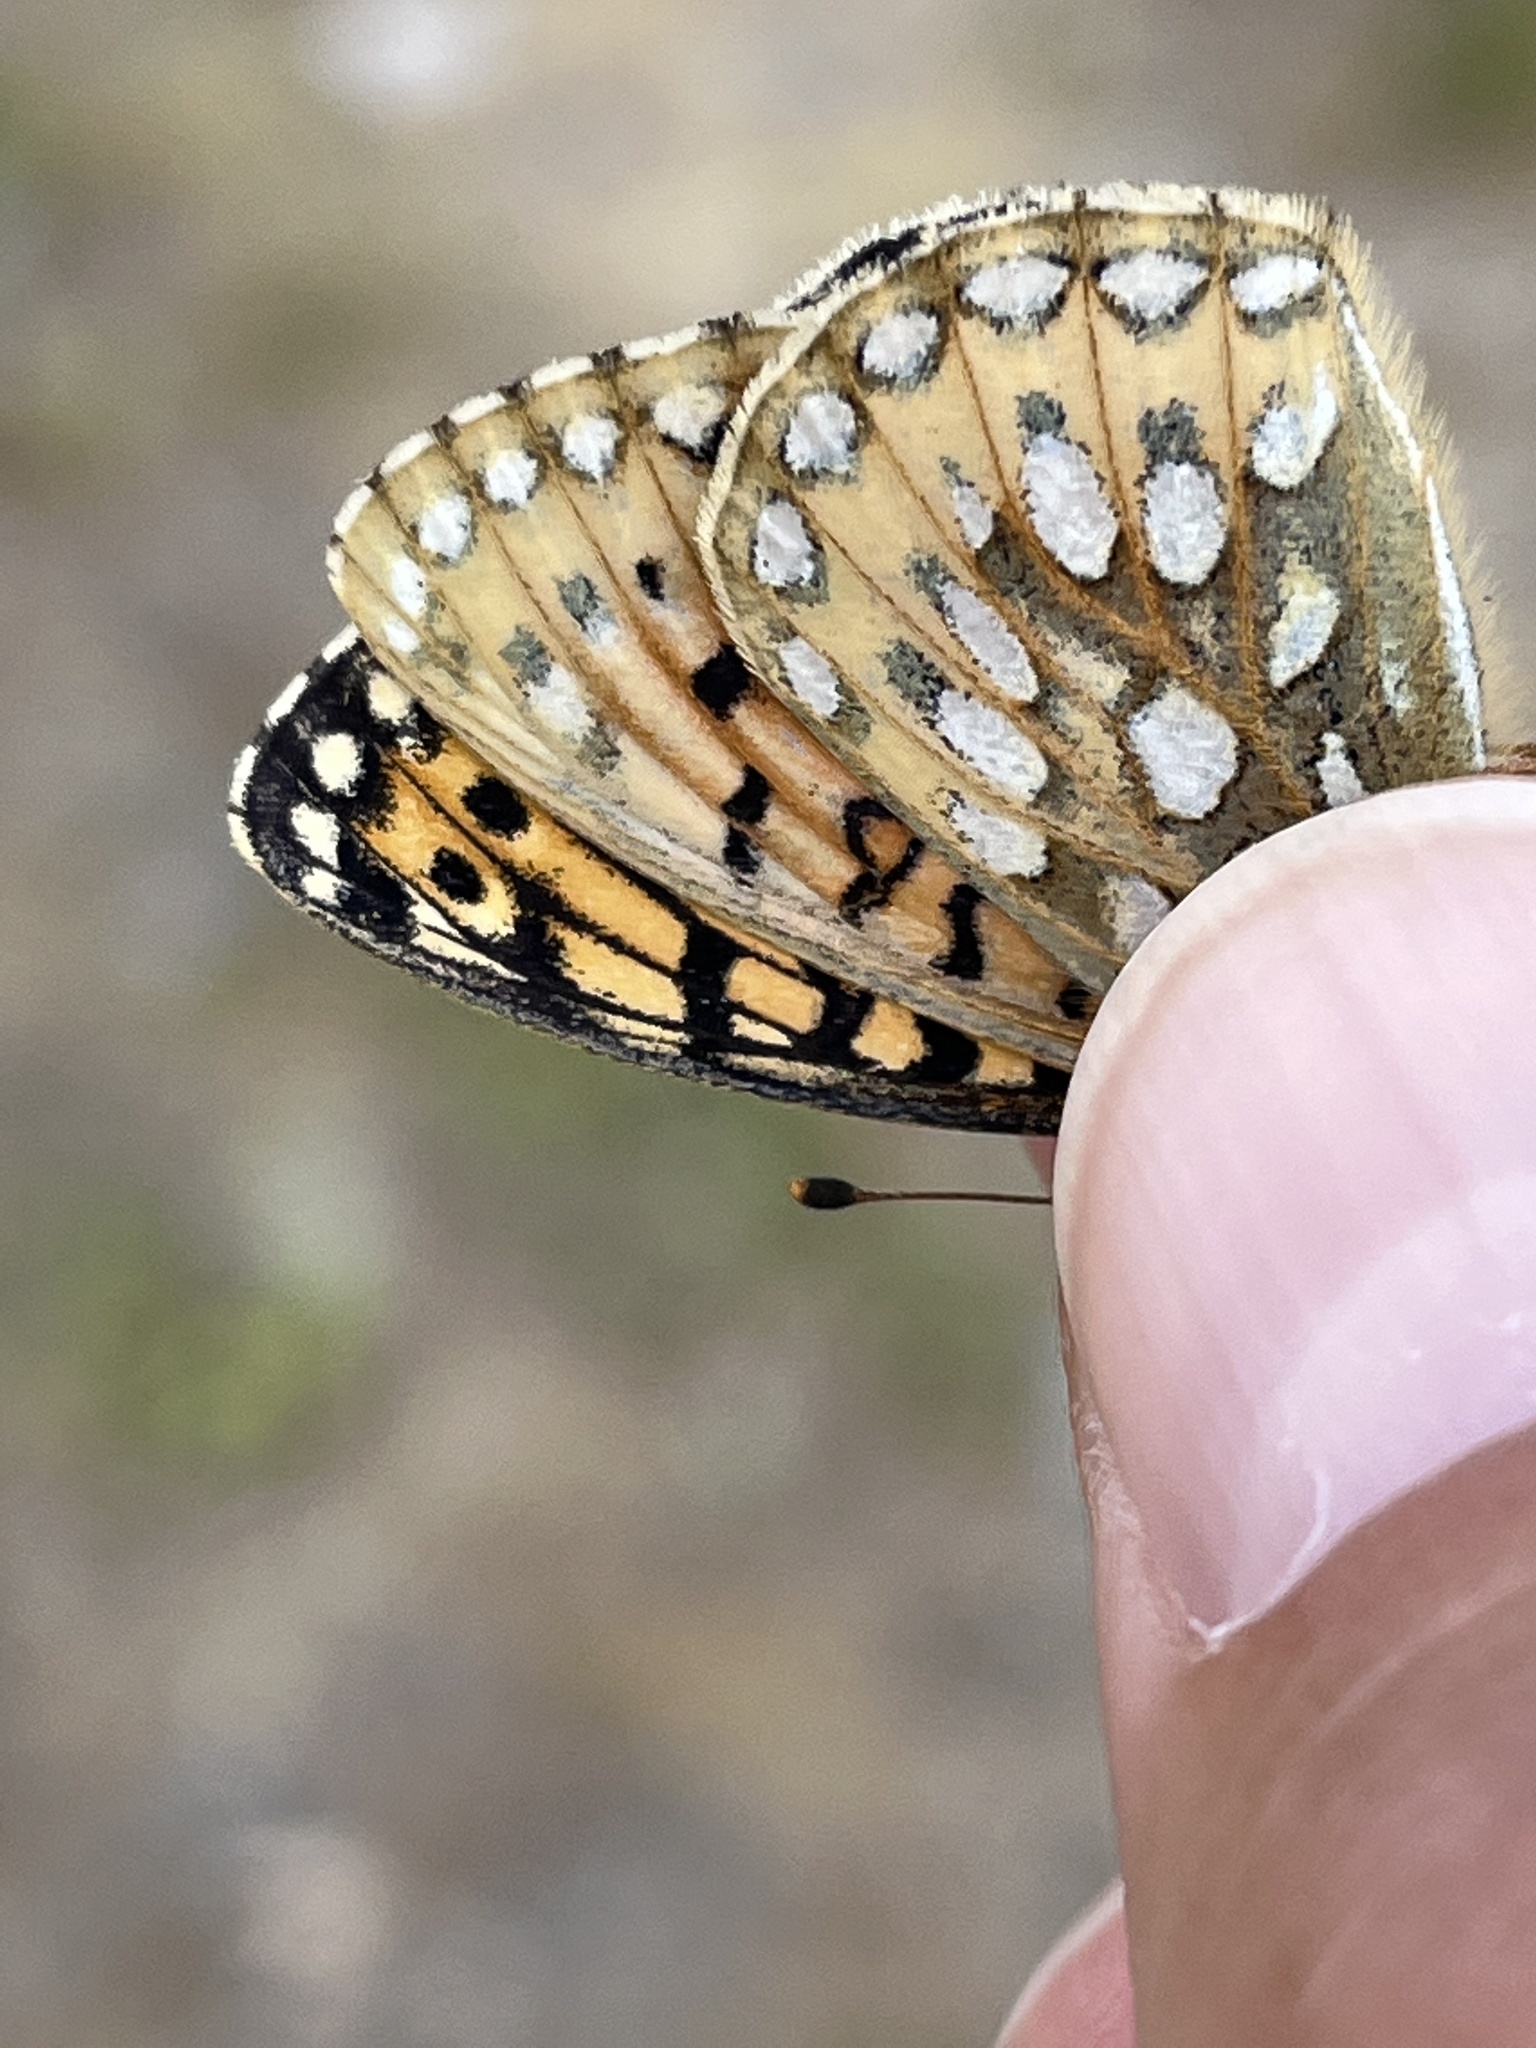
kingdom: Animalia
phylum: Arthropoda
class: Insecta
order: Lepidoptera
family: Nymphalidae
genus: Speyeria
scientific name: Speyeria mormonia
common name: Mormon fritillary
